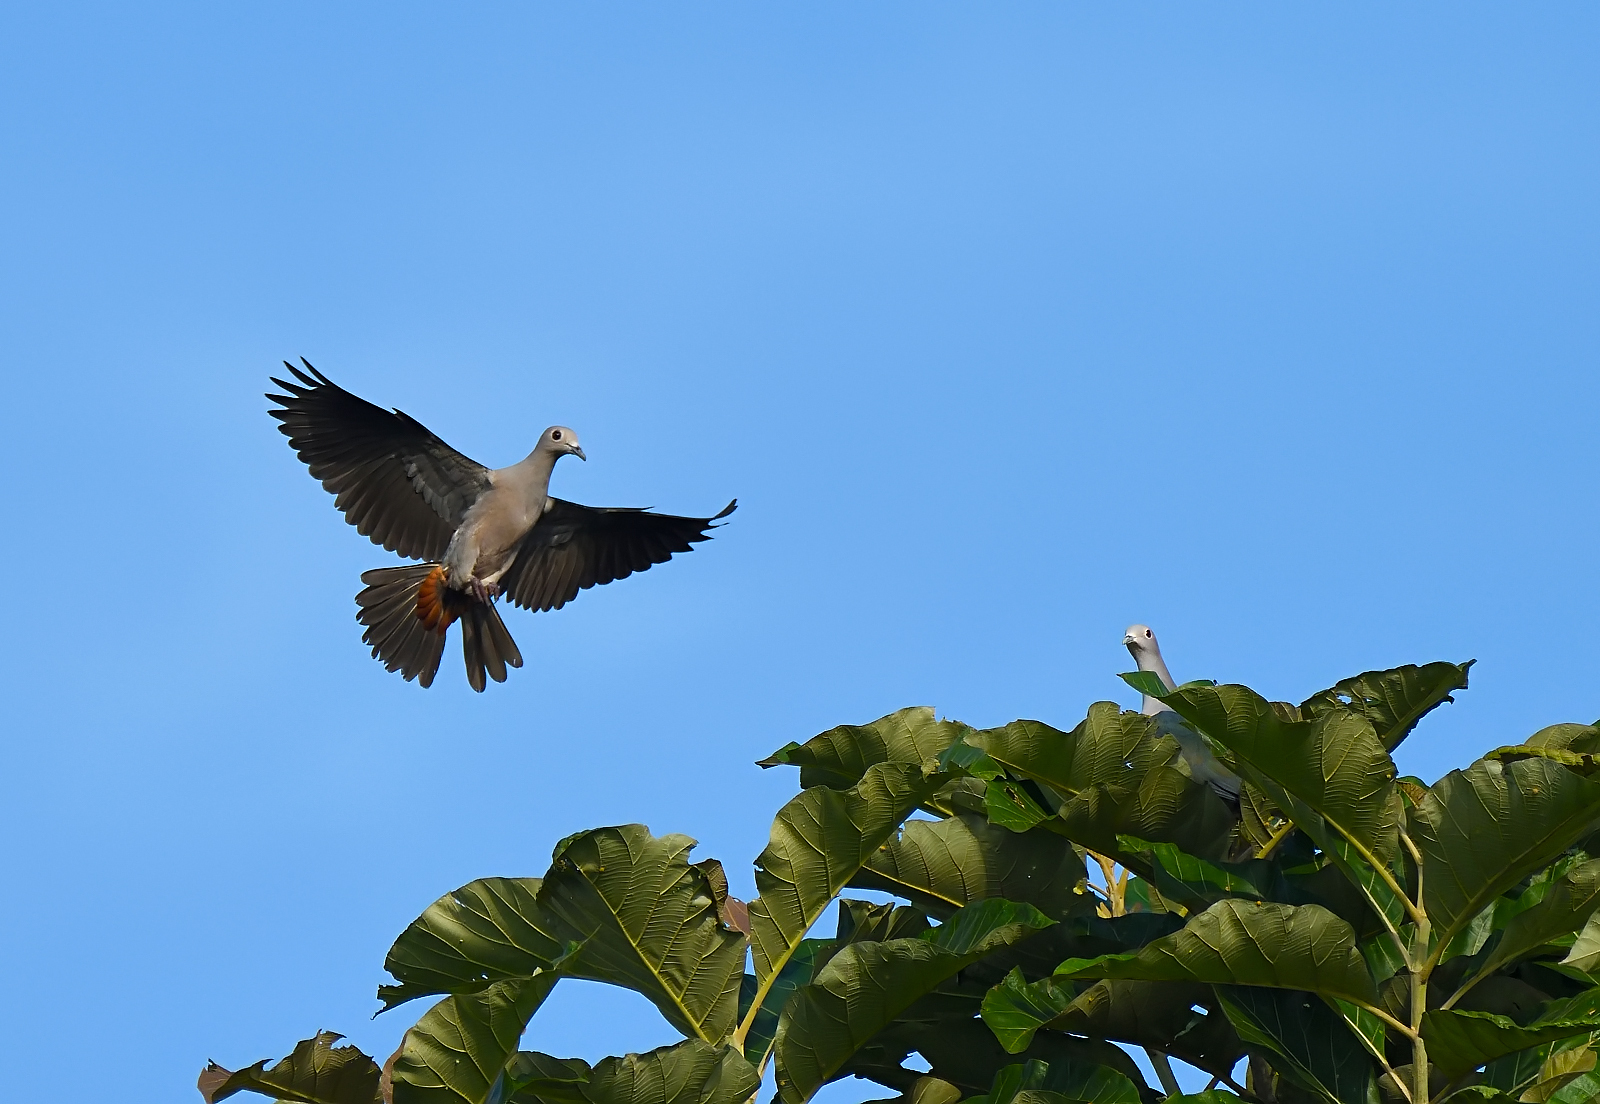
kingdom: Animalia
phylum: Chordata
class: Aves
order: Columbiformes
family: Columbidae
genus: Ducula
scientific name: Ducula aenea
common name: Green imperial pigeon
